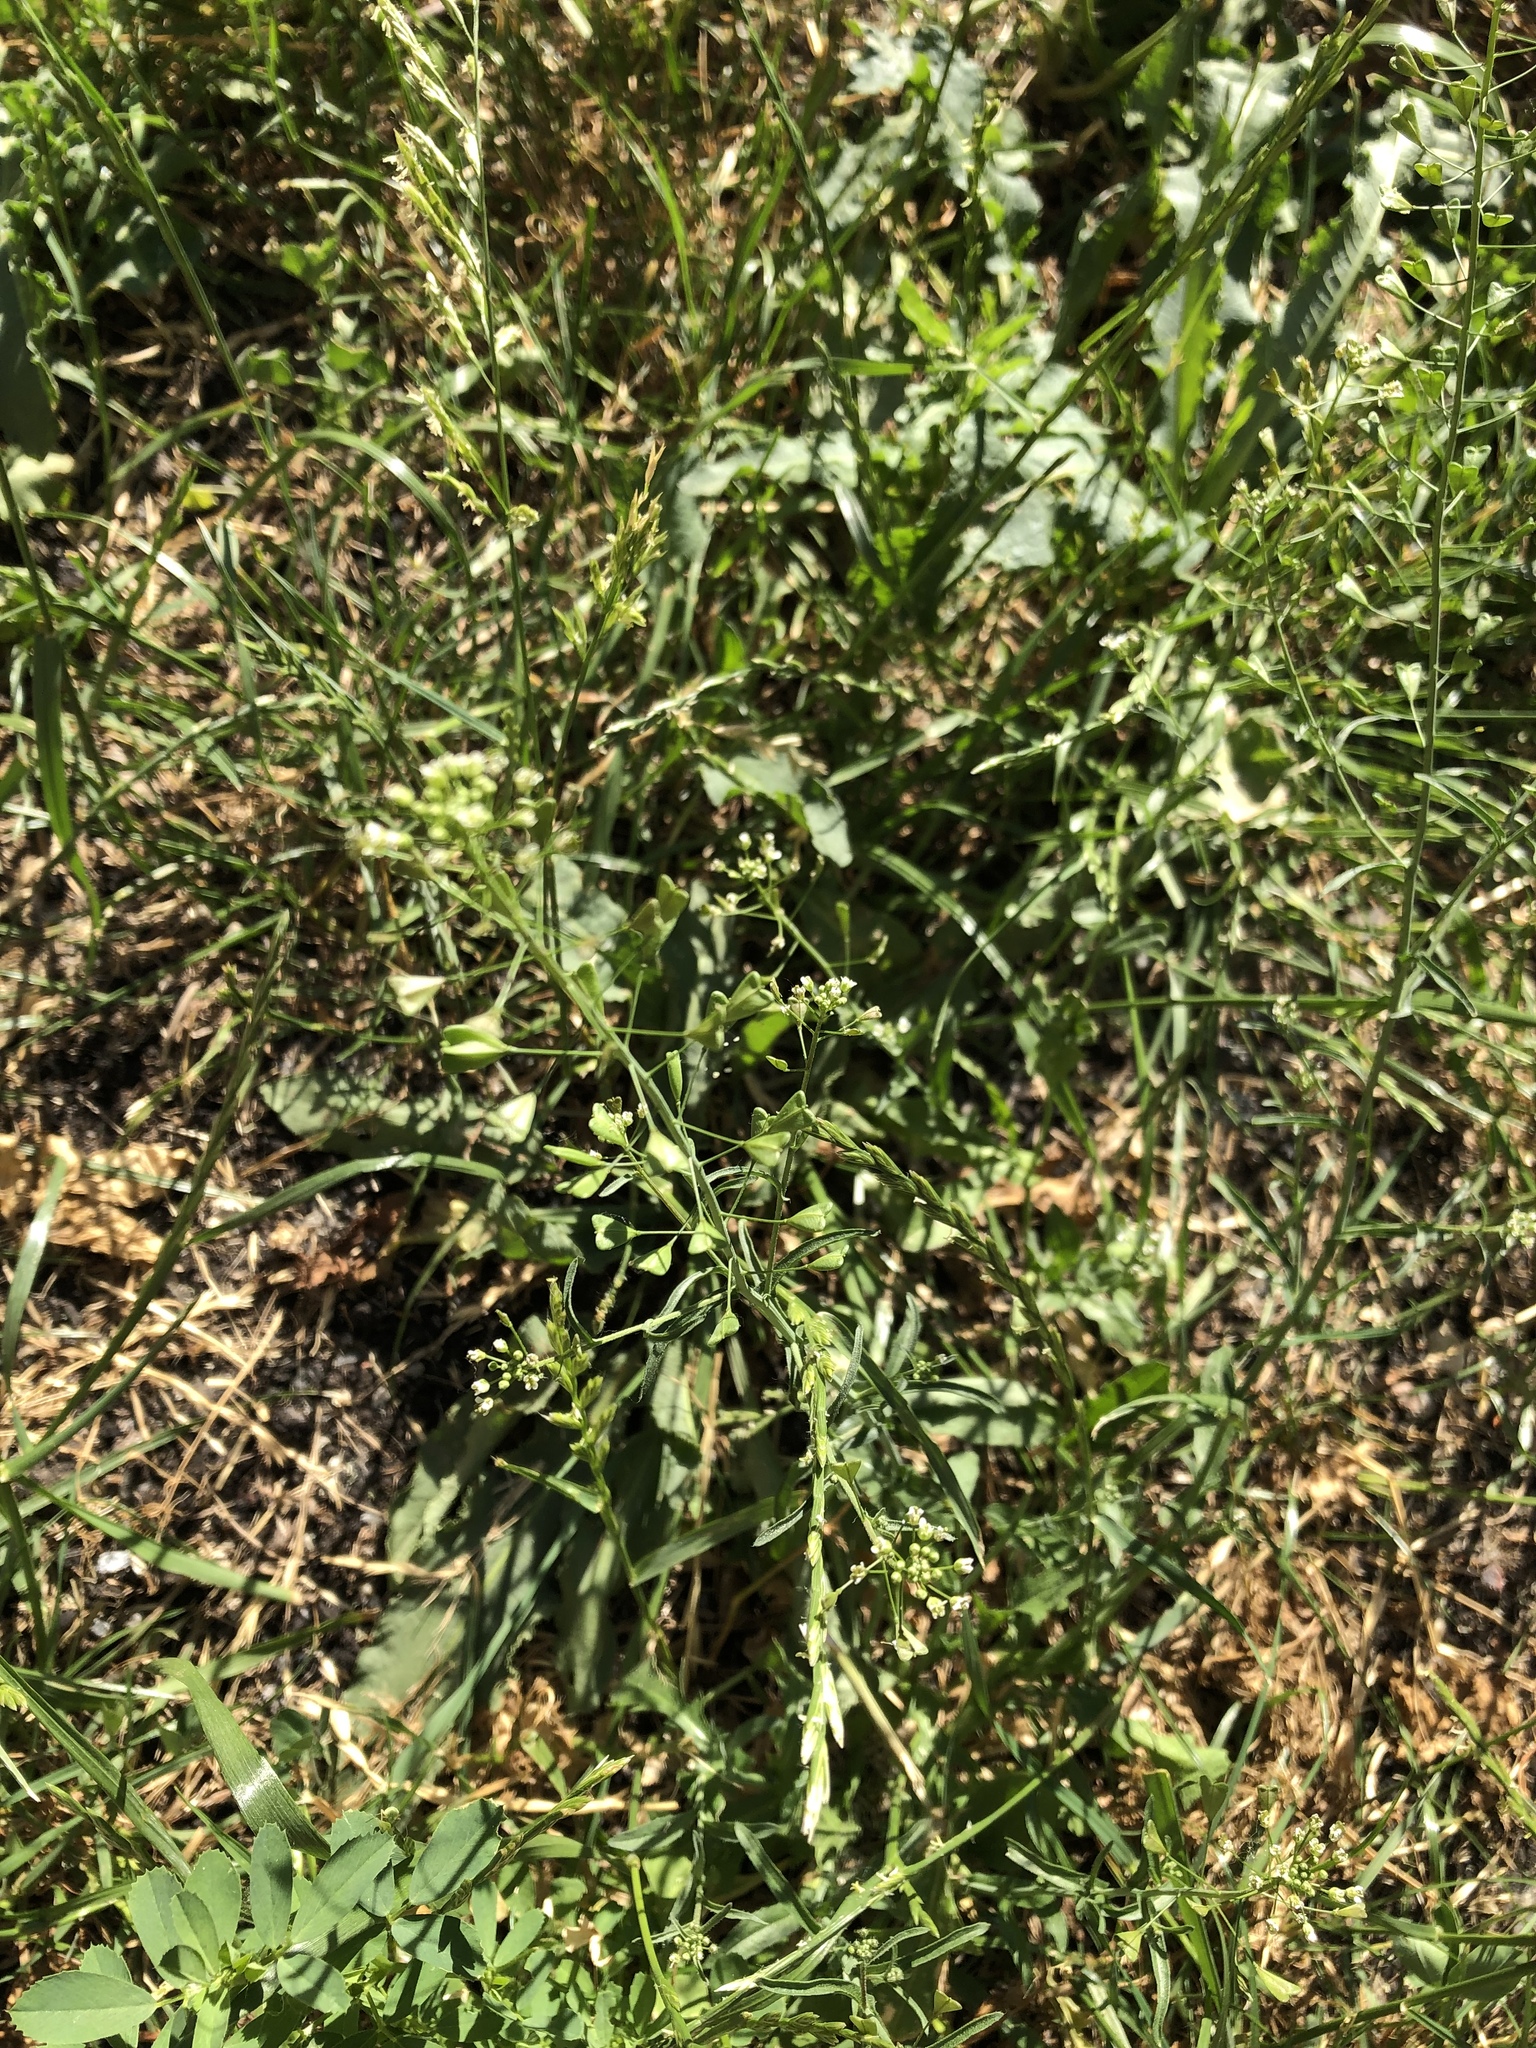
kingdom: Plantae
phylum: Tracheophyta
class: Magnoliopsida
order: Brassicales
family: Brassicaceae
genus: Capsella
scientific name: Capsella bursa-pastoris
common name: Shepherd's purse
